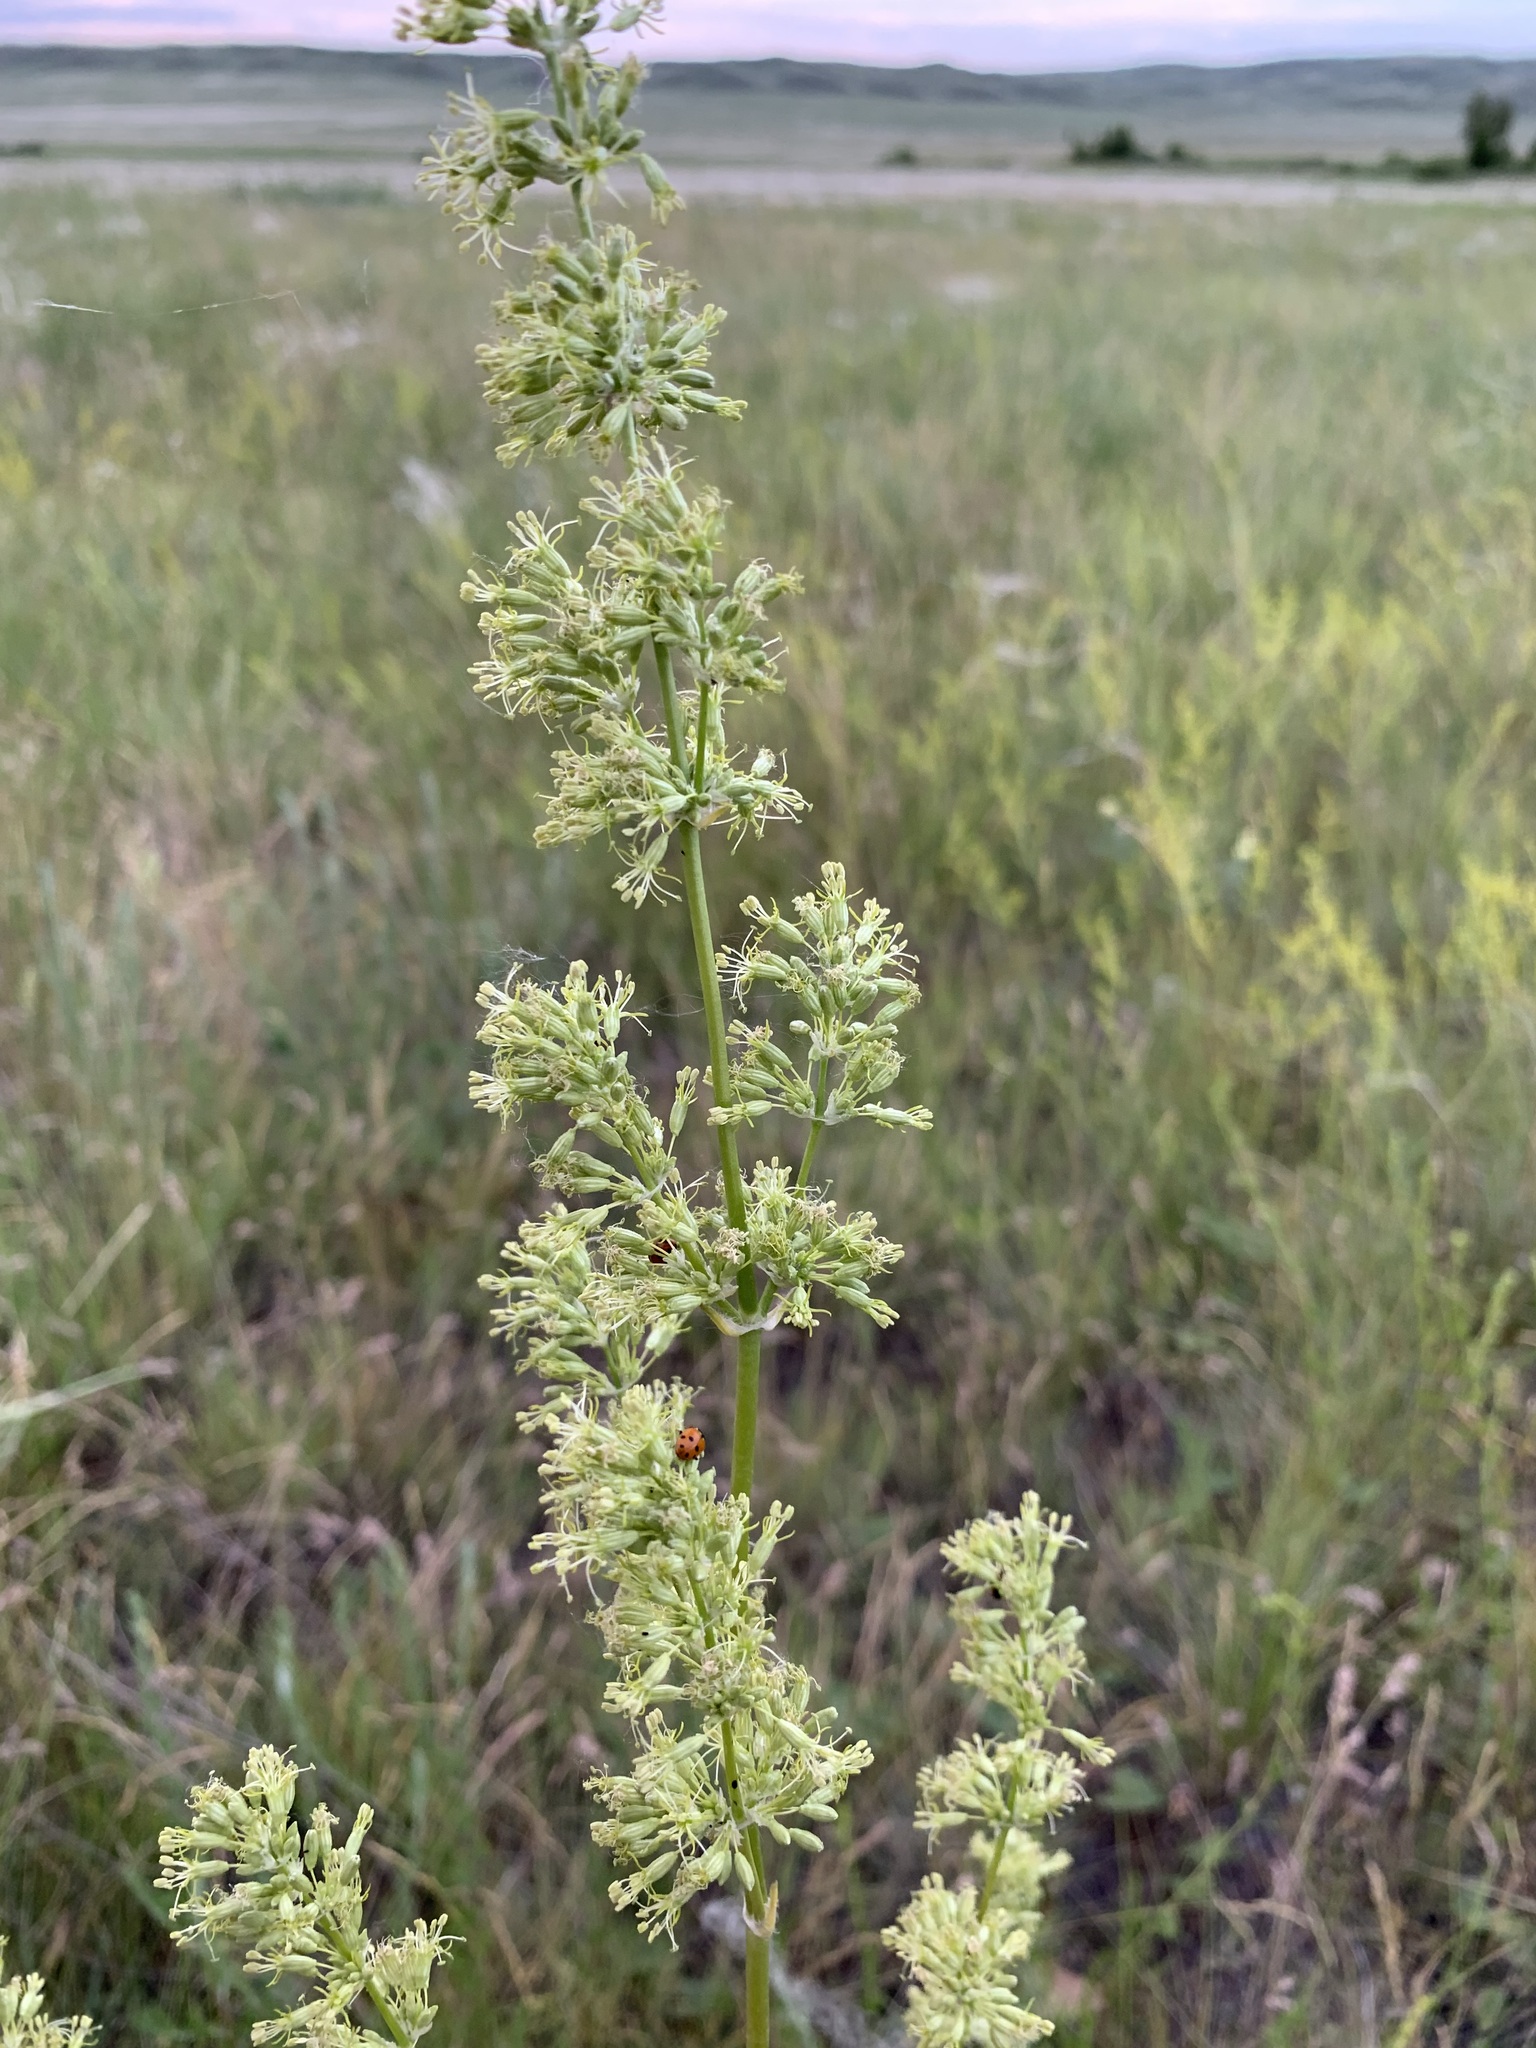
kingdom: Plantae
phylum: Tracheophyta
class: Magnoliopsida
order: Caryophyllales
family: Caryophyllaceae
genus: Silene
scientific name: Silene
